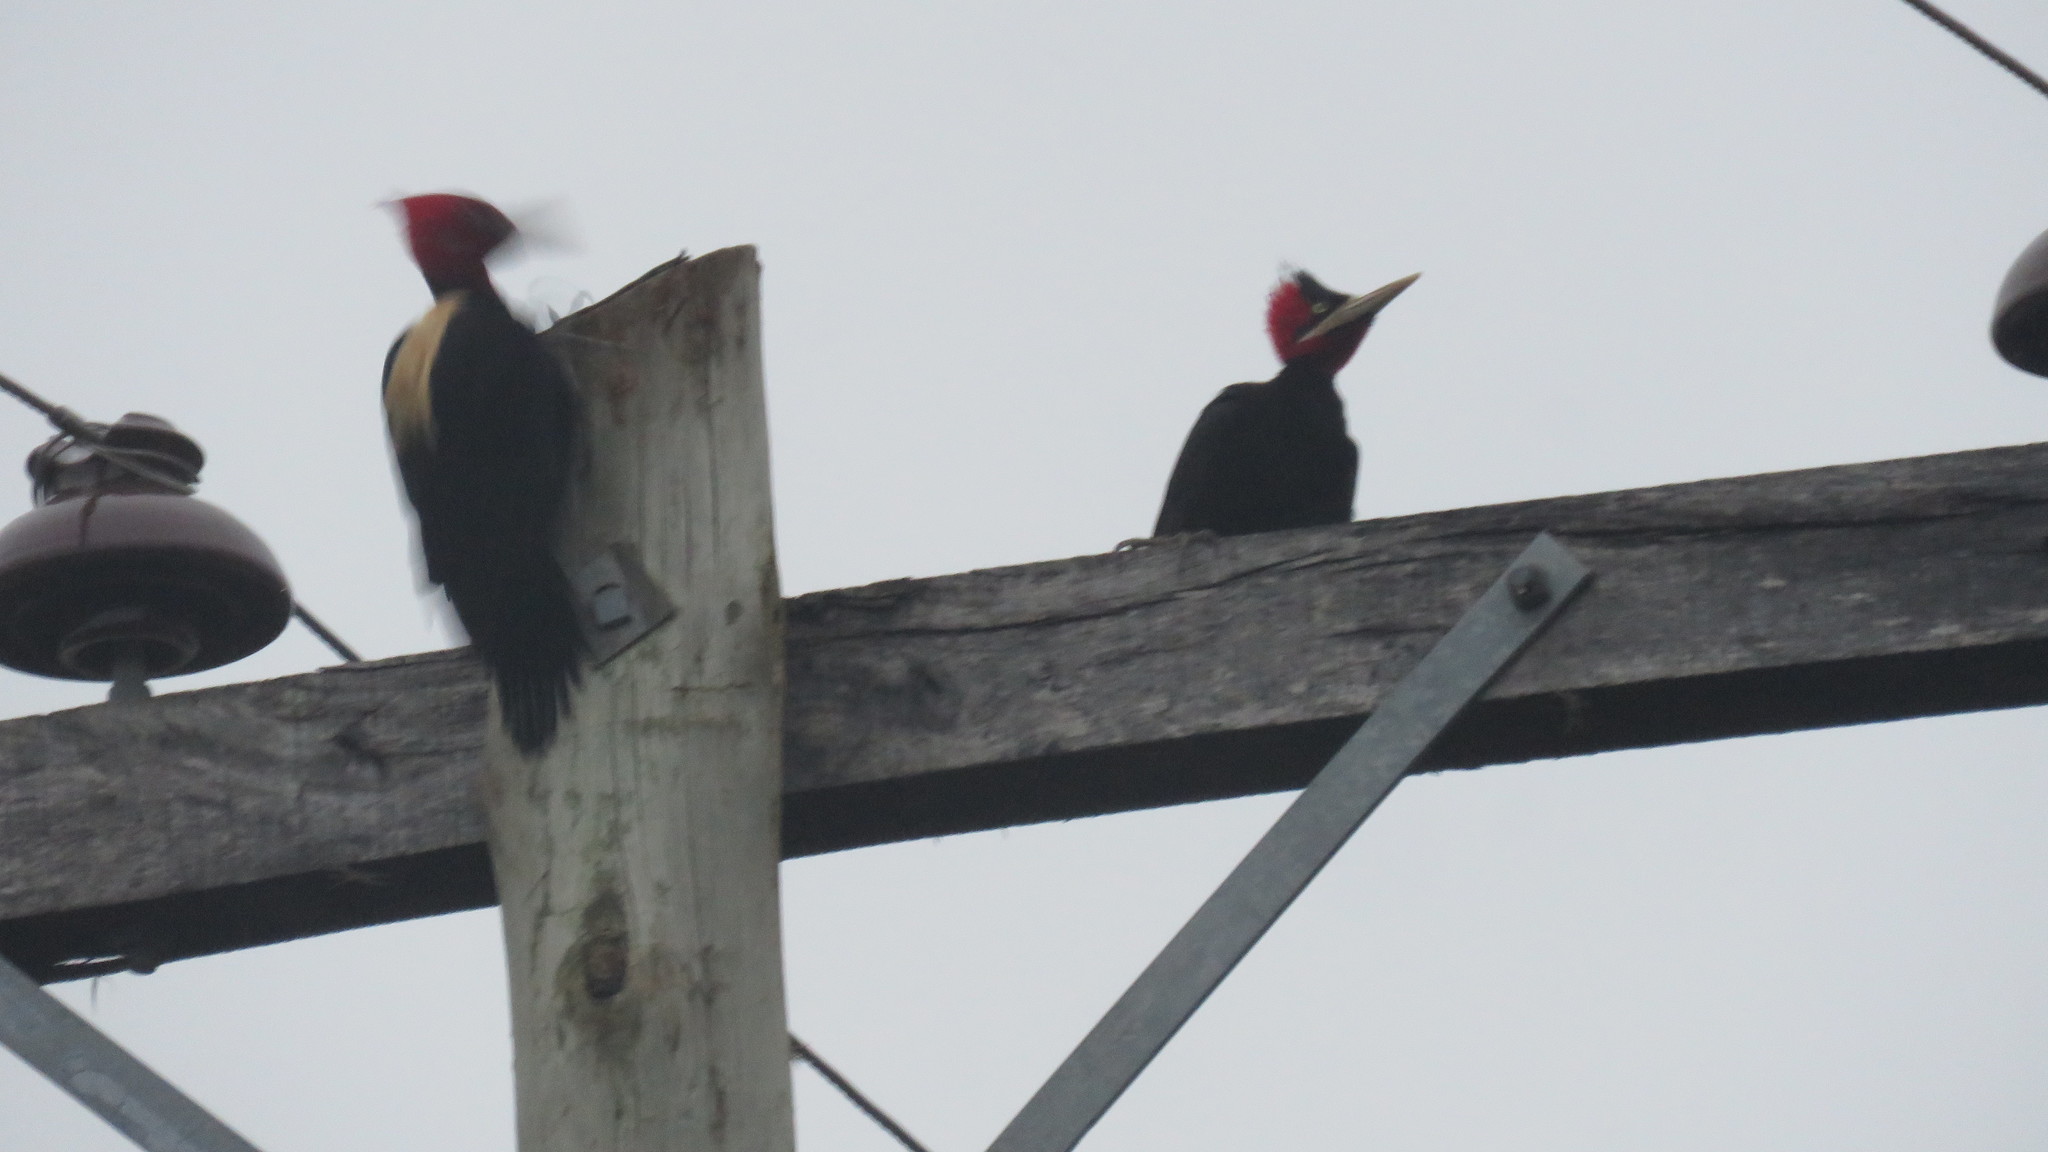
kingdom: Animalia
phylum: Chordata
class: Aves
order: Piciformes
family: Picidae
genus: Campephilus
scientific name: Campephilus leucopogon
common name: Cream-backed woodpecker
